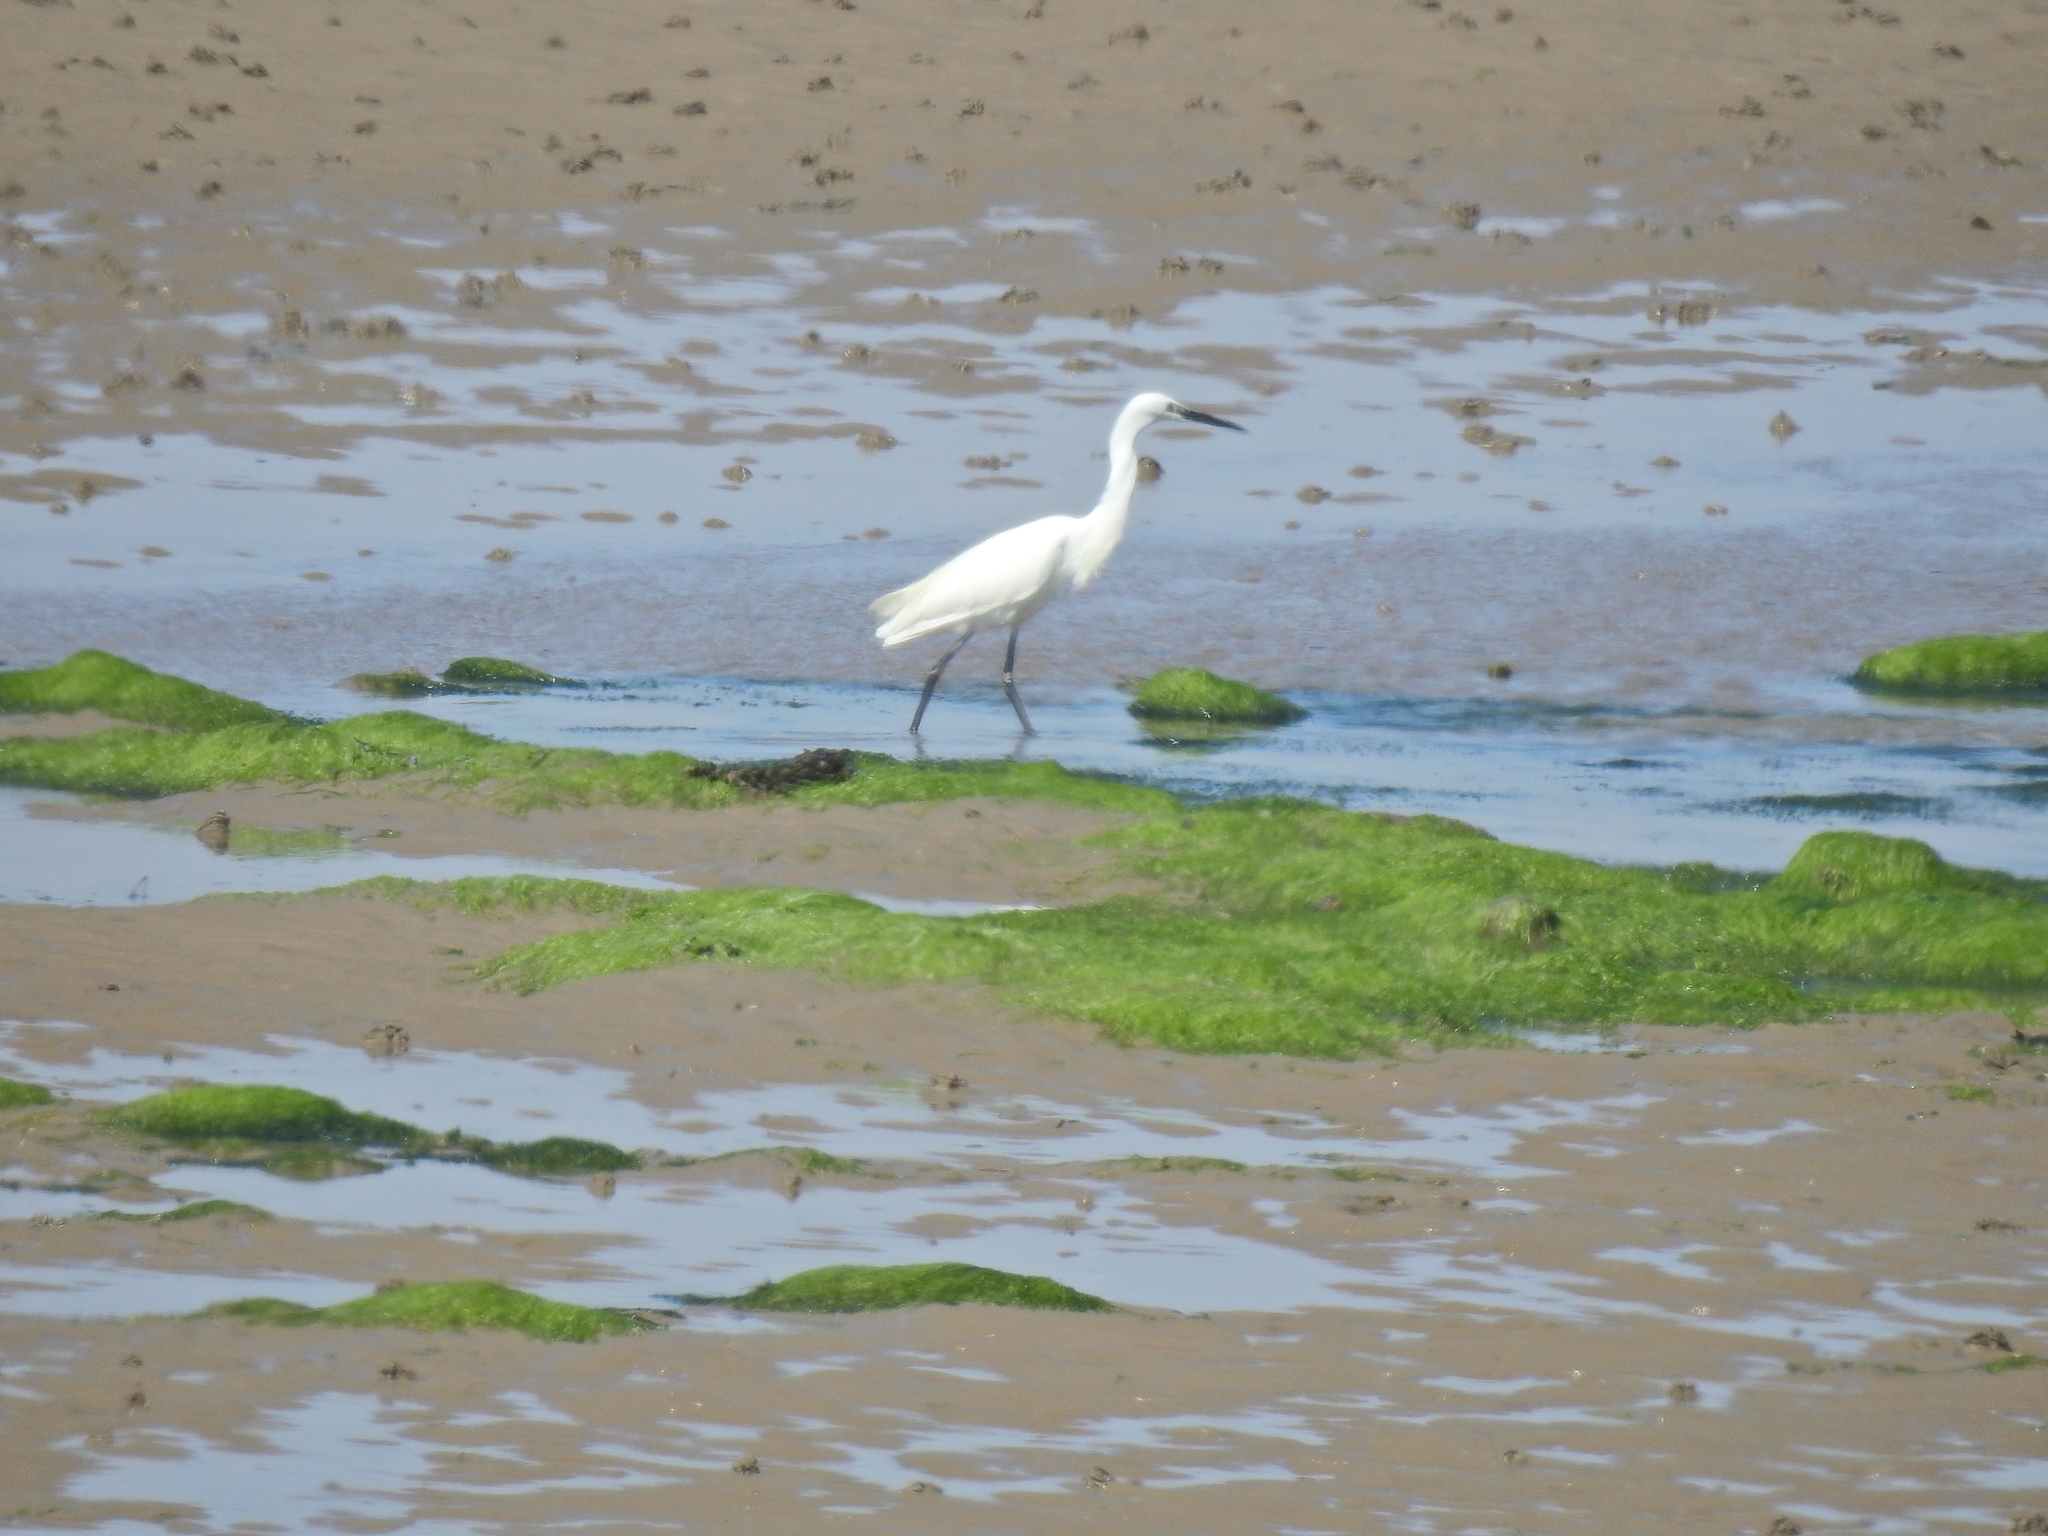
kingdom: Animalia
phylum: Chordata
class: Aves
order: Pelecaniformes
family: Ardeidae
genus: Egretta
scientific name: Egretta garzetta
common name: Little egret
